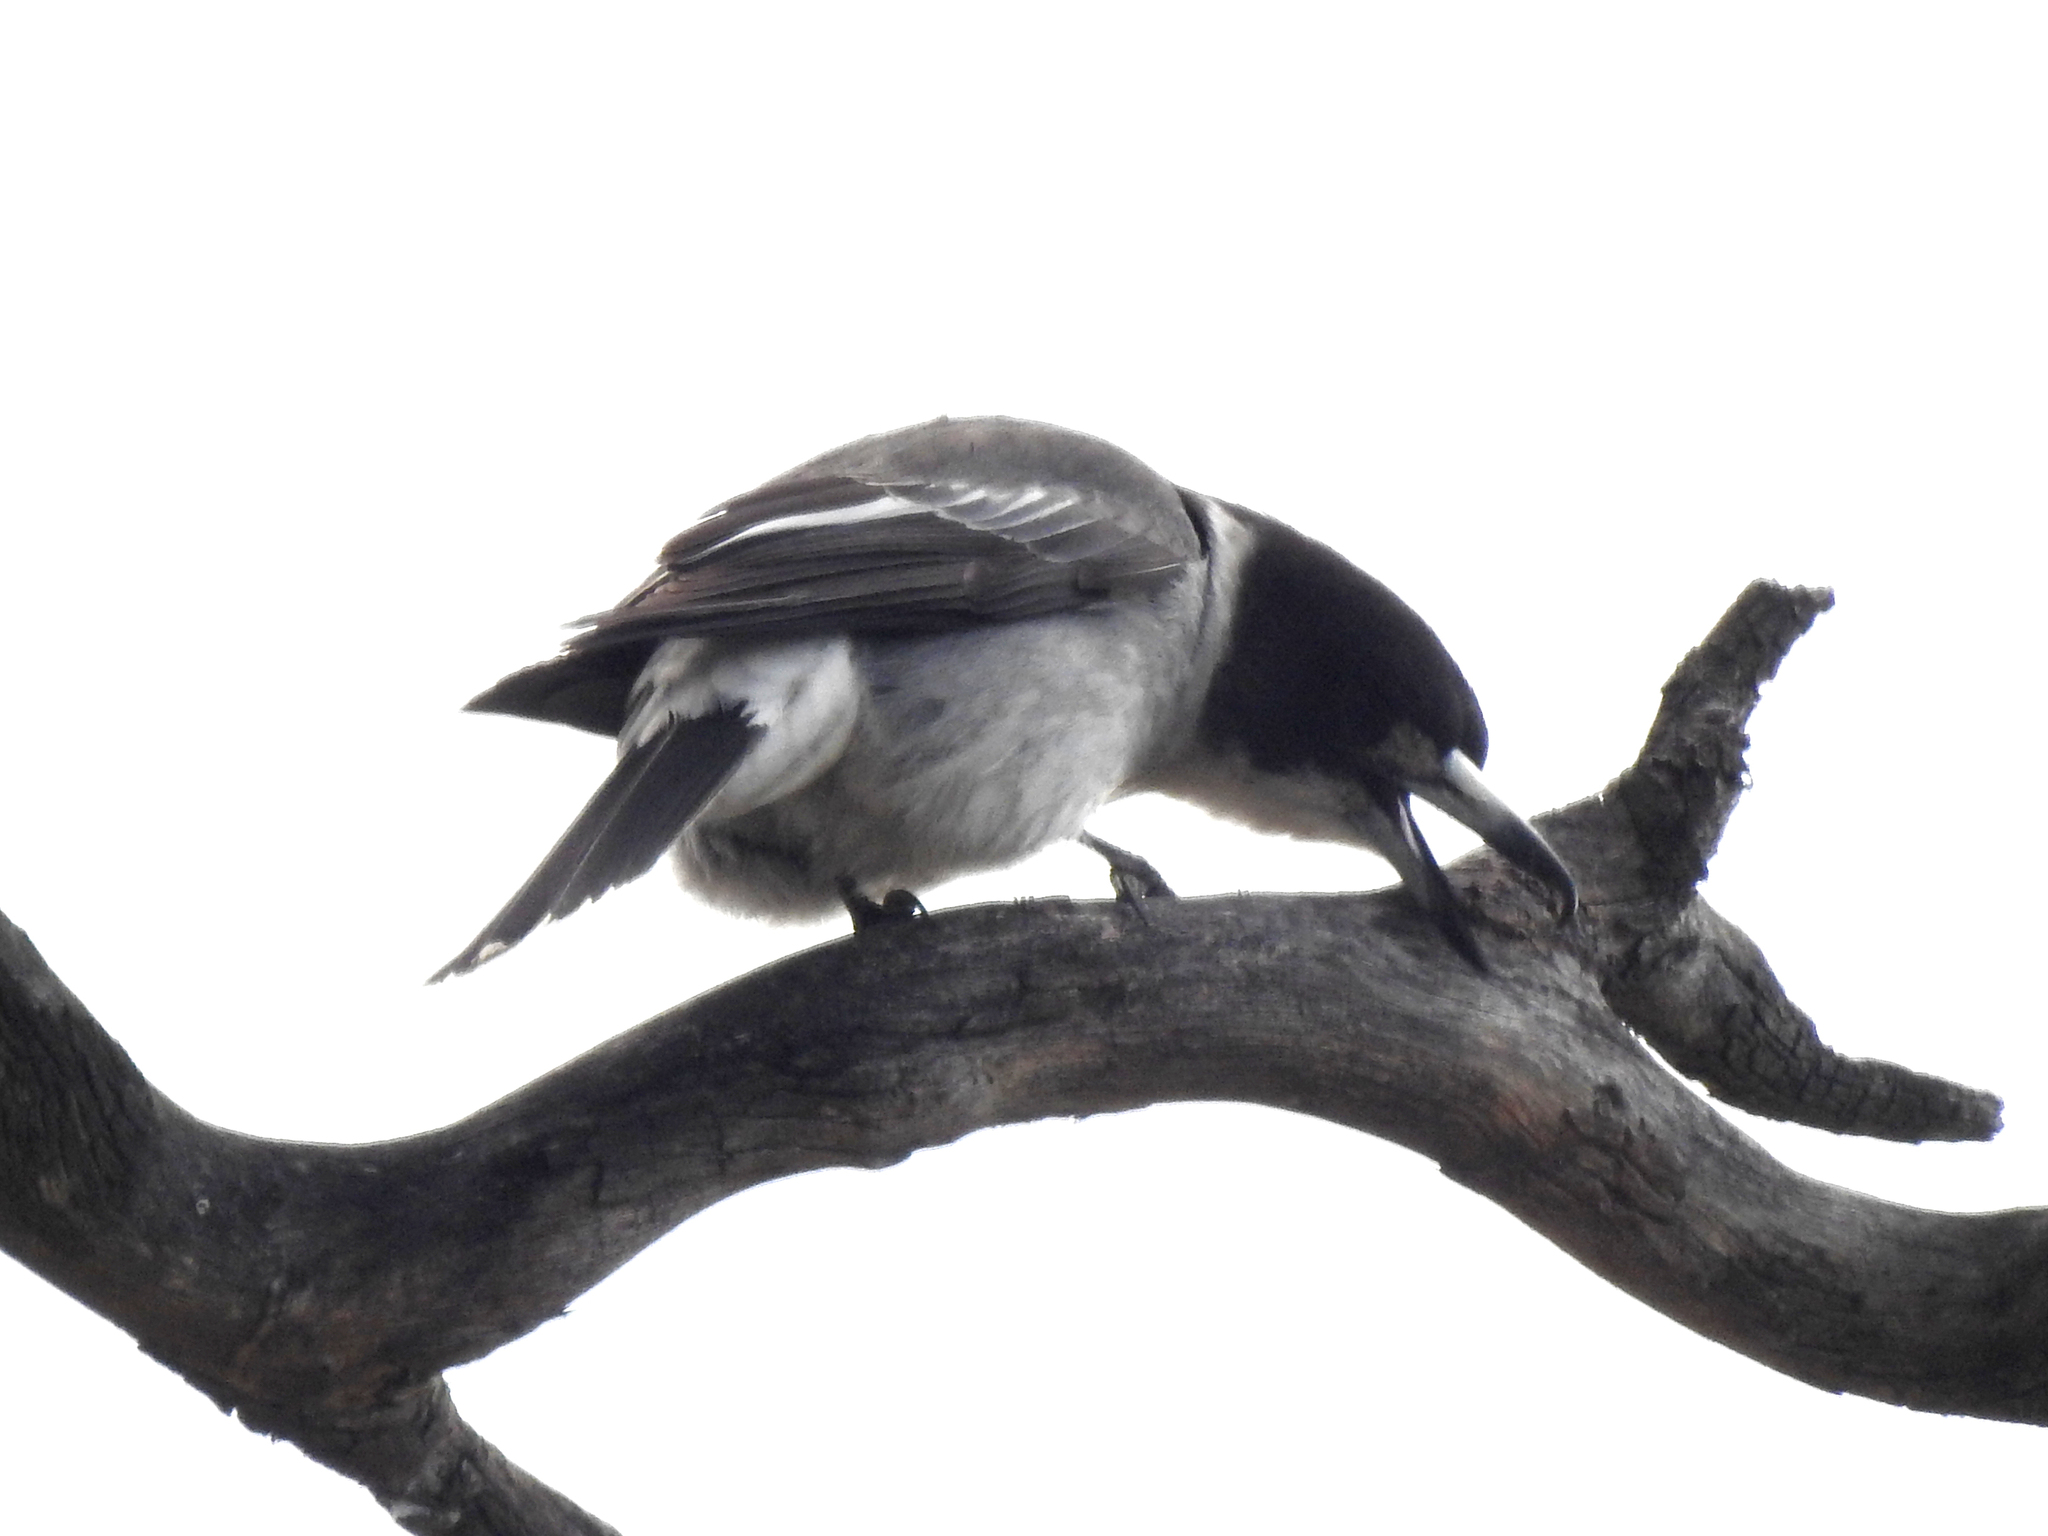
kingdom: Animalia
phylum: Chordata
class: Aves
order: Passeriformes
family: Cracticidae
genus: Cracticus
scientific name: Cracticus torquatus
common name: Grey butcherbird
